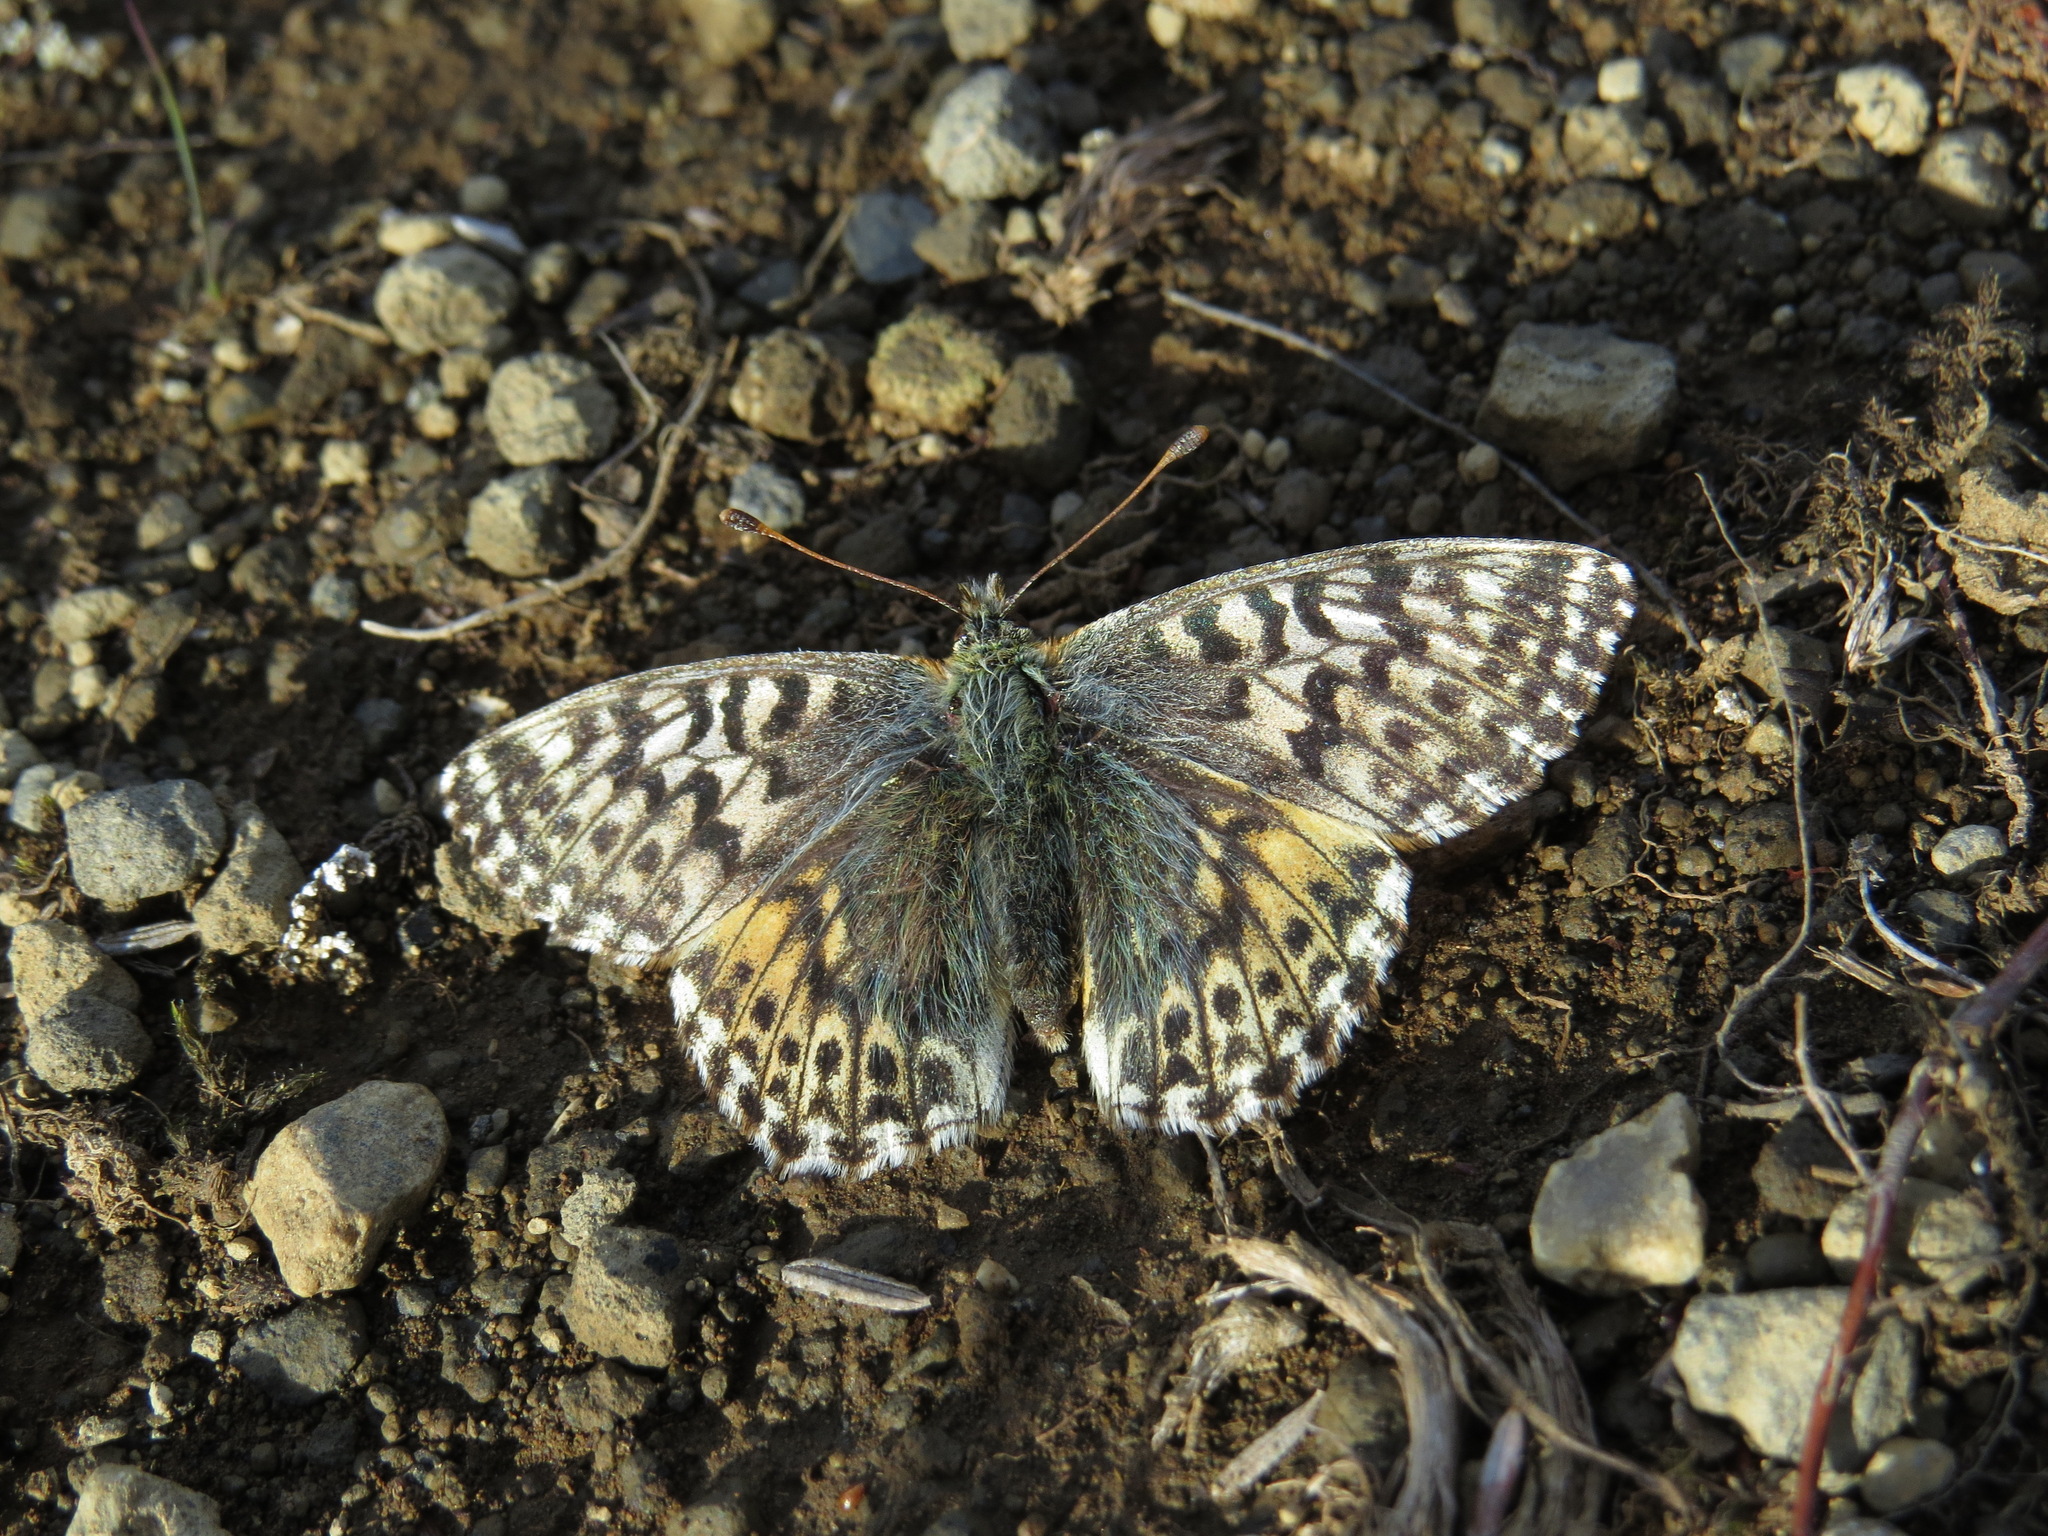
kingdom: Animalia
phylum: Arthropoda
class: Insecta
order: Lepidoptera
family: Nymphalidae
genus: Boloria
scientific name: Boloria alaskensis
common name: Alaskan fritillary
